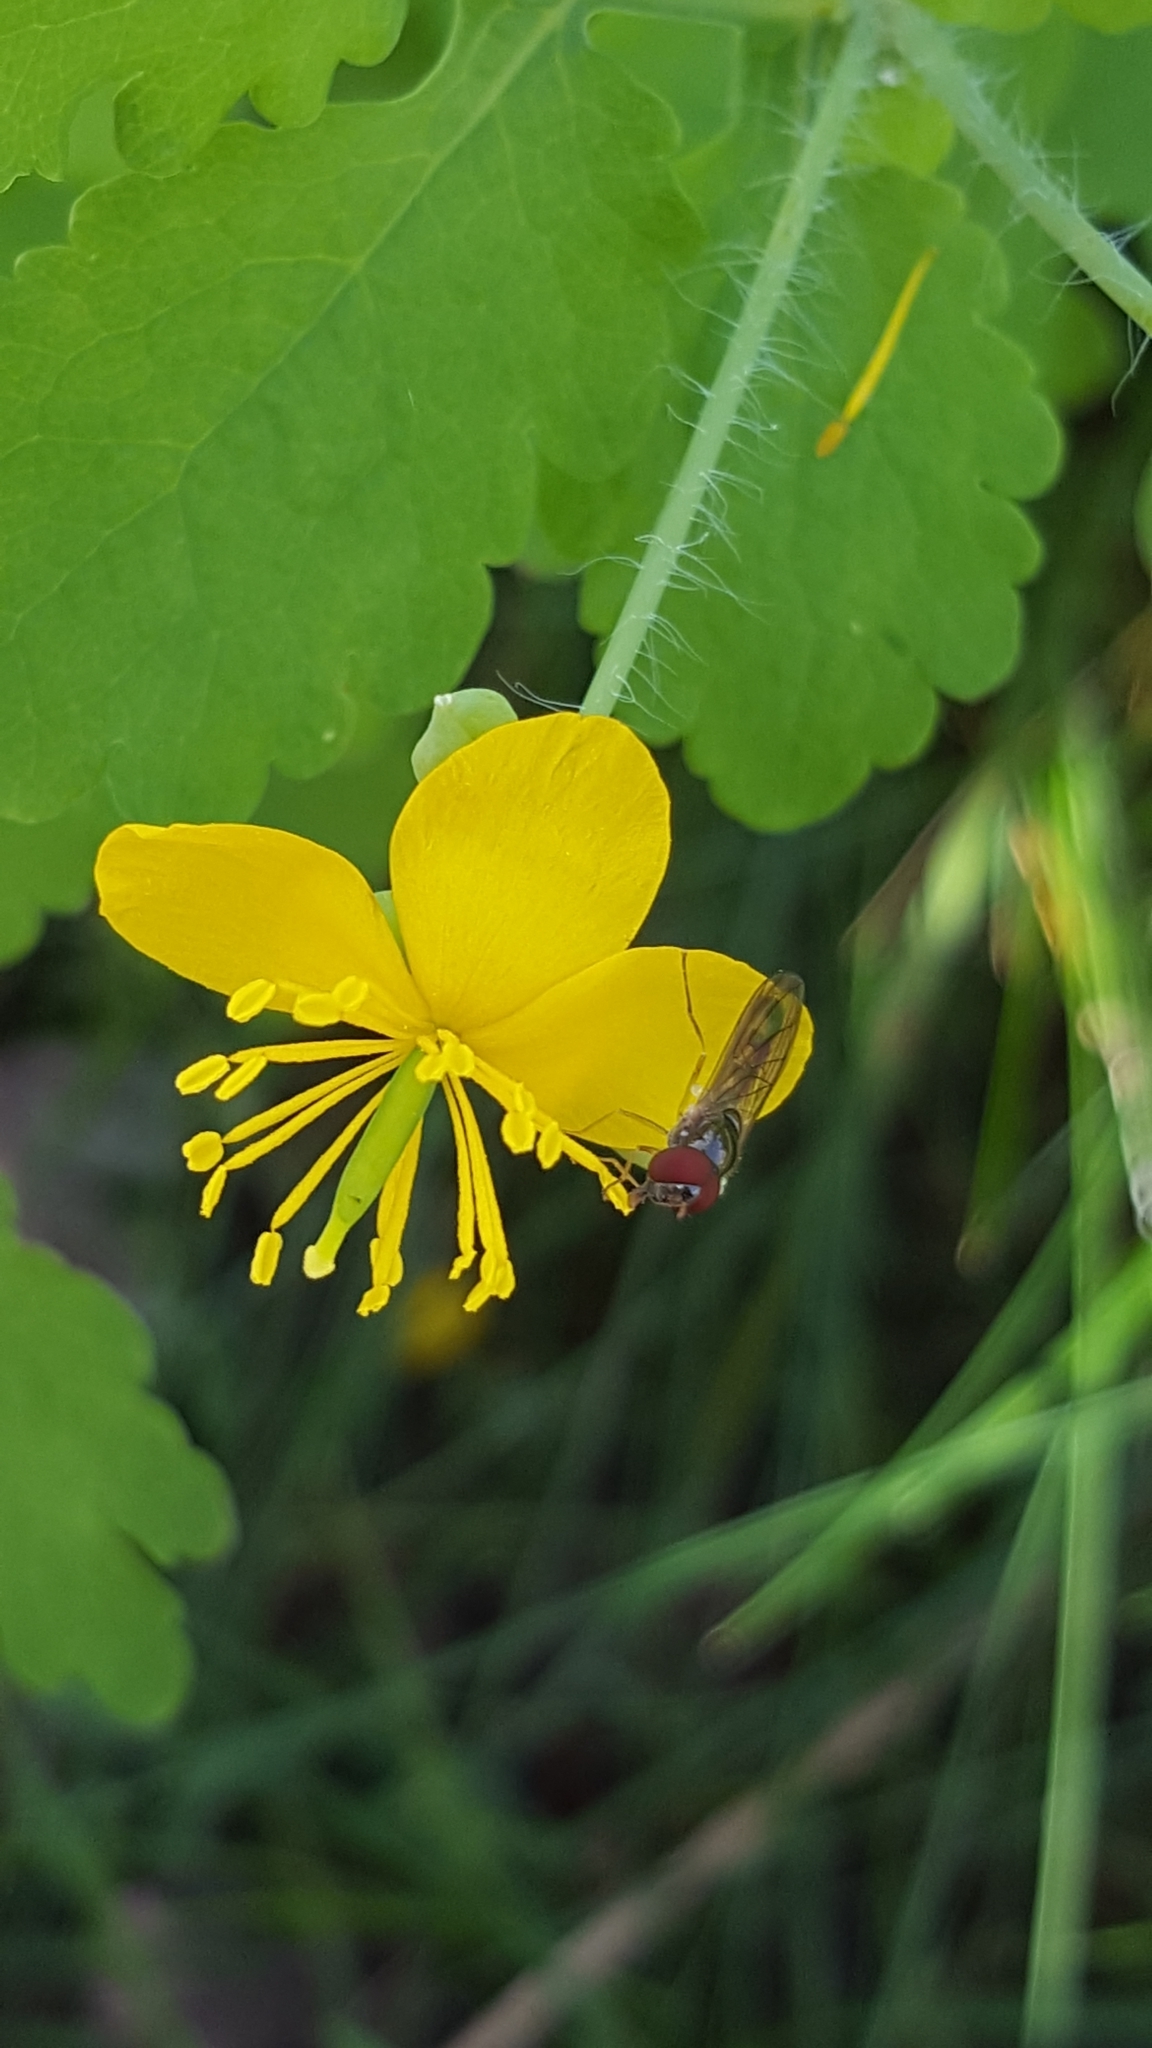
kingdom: Plantae
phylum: Tracheophyta
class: Magnoliopsida
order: Ranunculales
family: Papaveraceae
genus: Chelidonium
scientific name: Chelidonium majus
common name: Greater celandine
